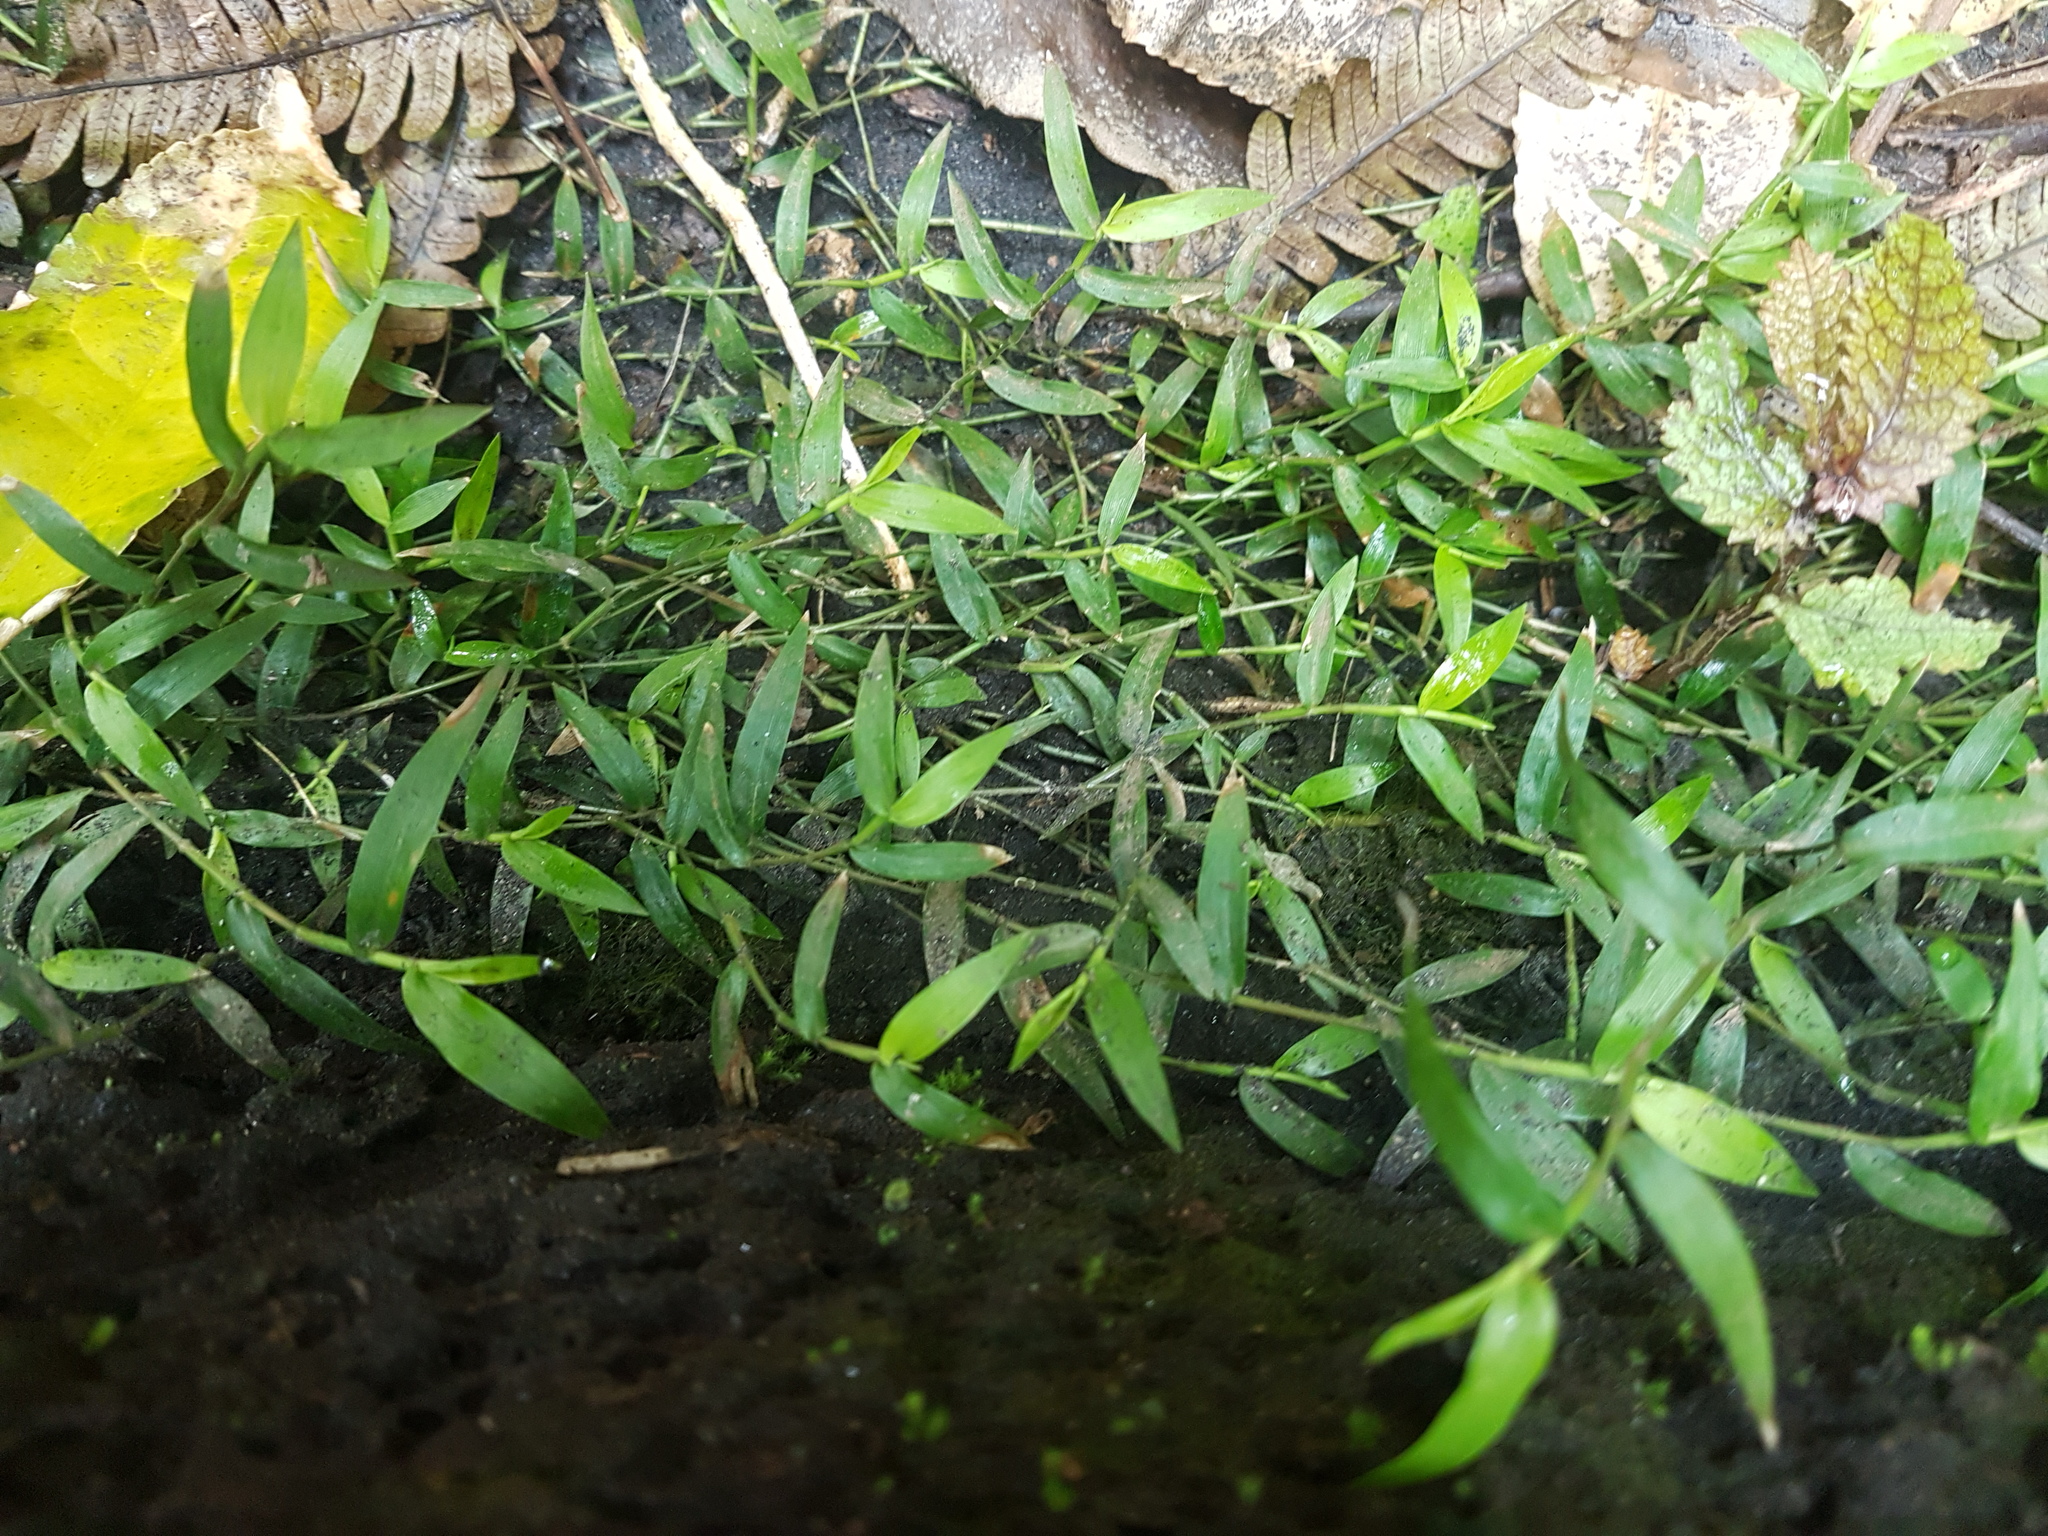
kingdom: Plantae
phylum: Tracheophyta
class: Liliopsida
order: Poales
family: Poaceae
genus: Oplismenus
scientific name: Oplismenus hirtellus
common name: Basketgrass
